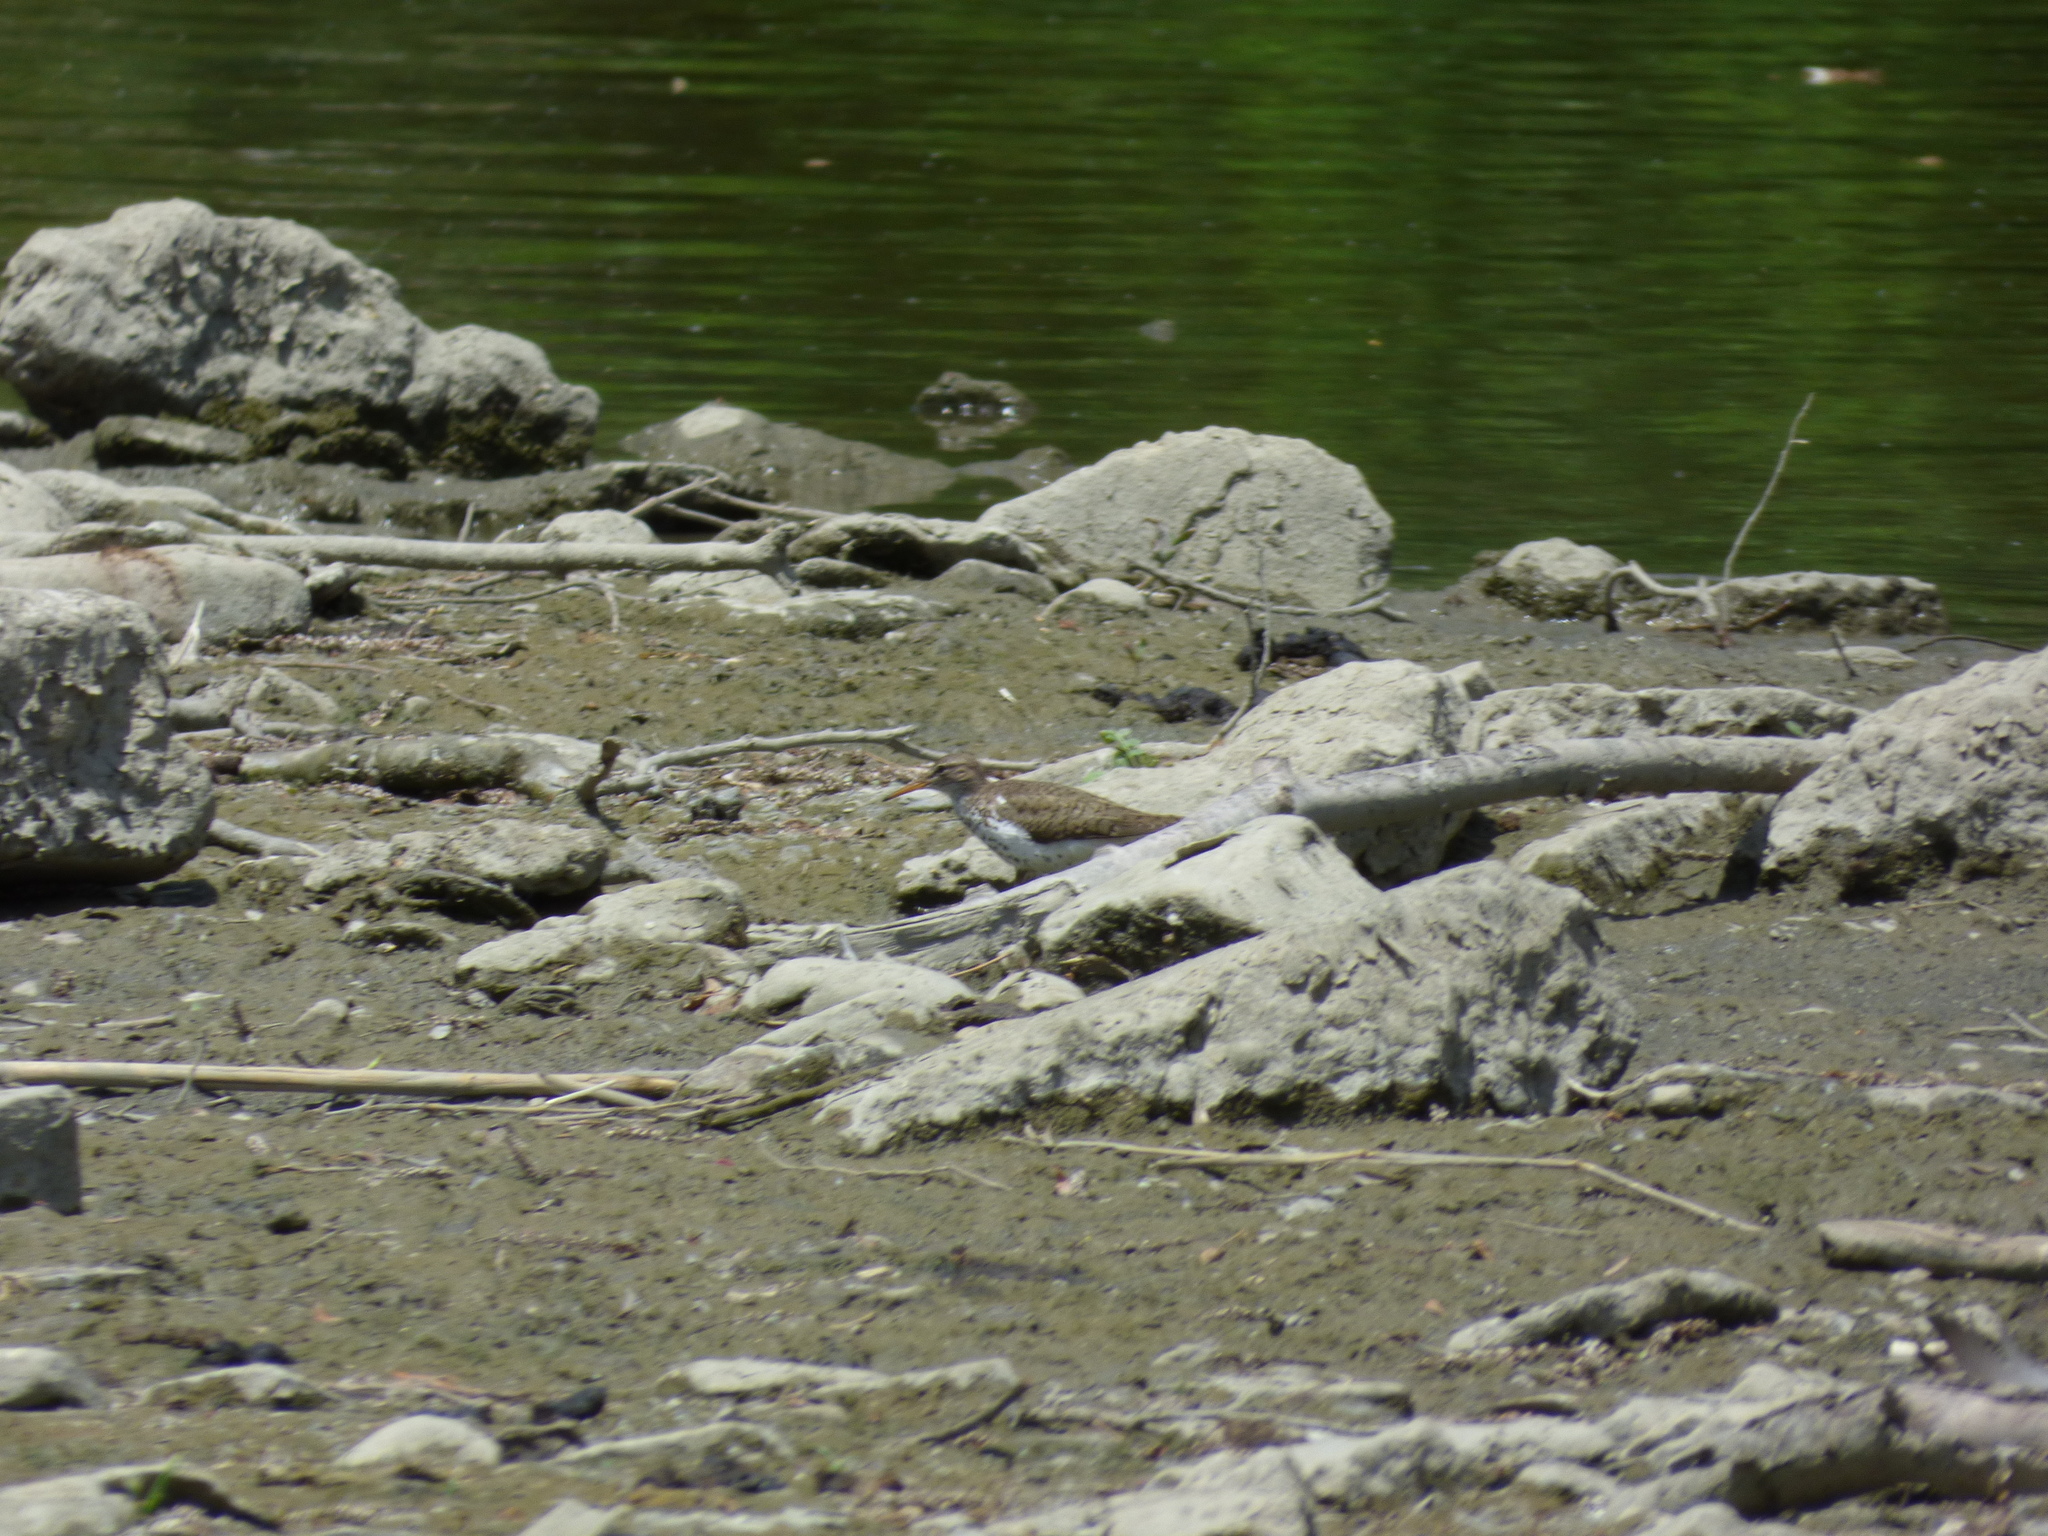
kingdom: Animalia
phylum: Chordata
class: Aves
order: Charadriiformes
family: Scolopacidae
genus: Actitis
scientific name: Actitis macularius
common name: Spotted sandpiper
